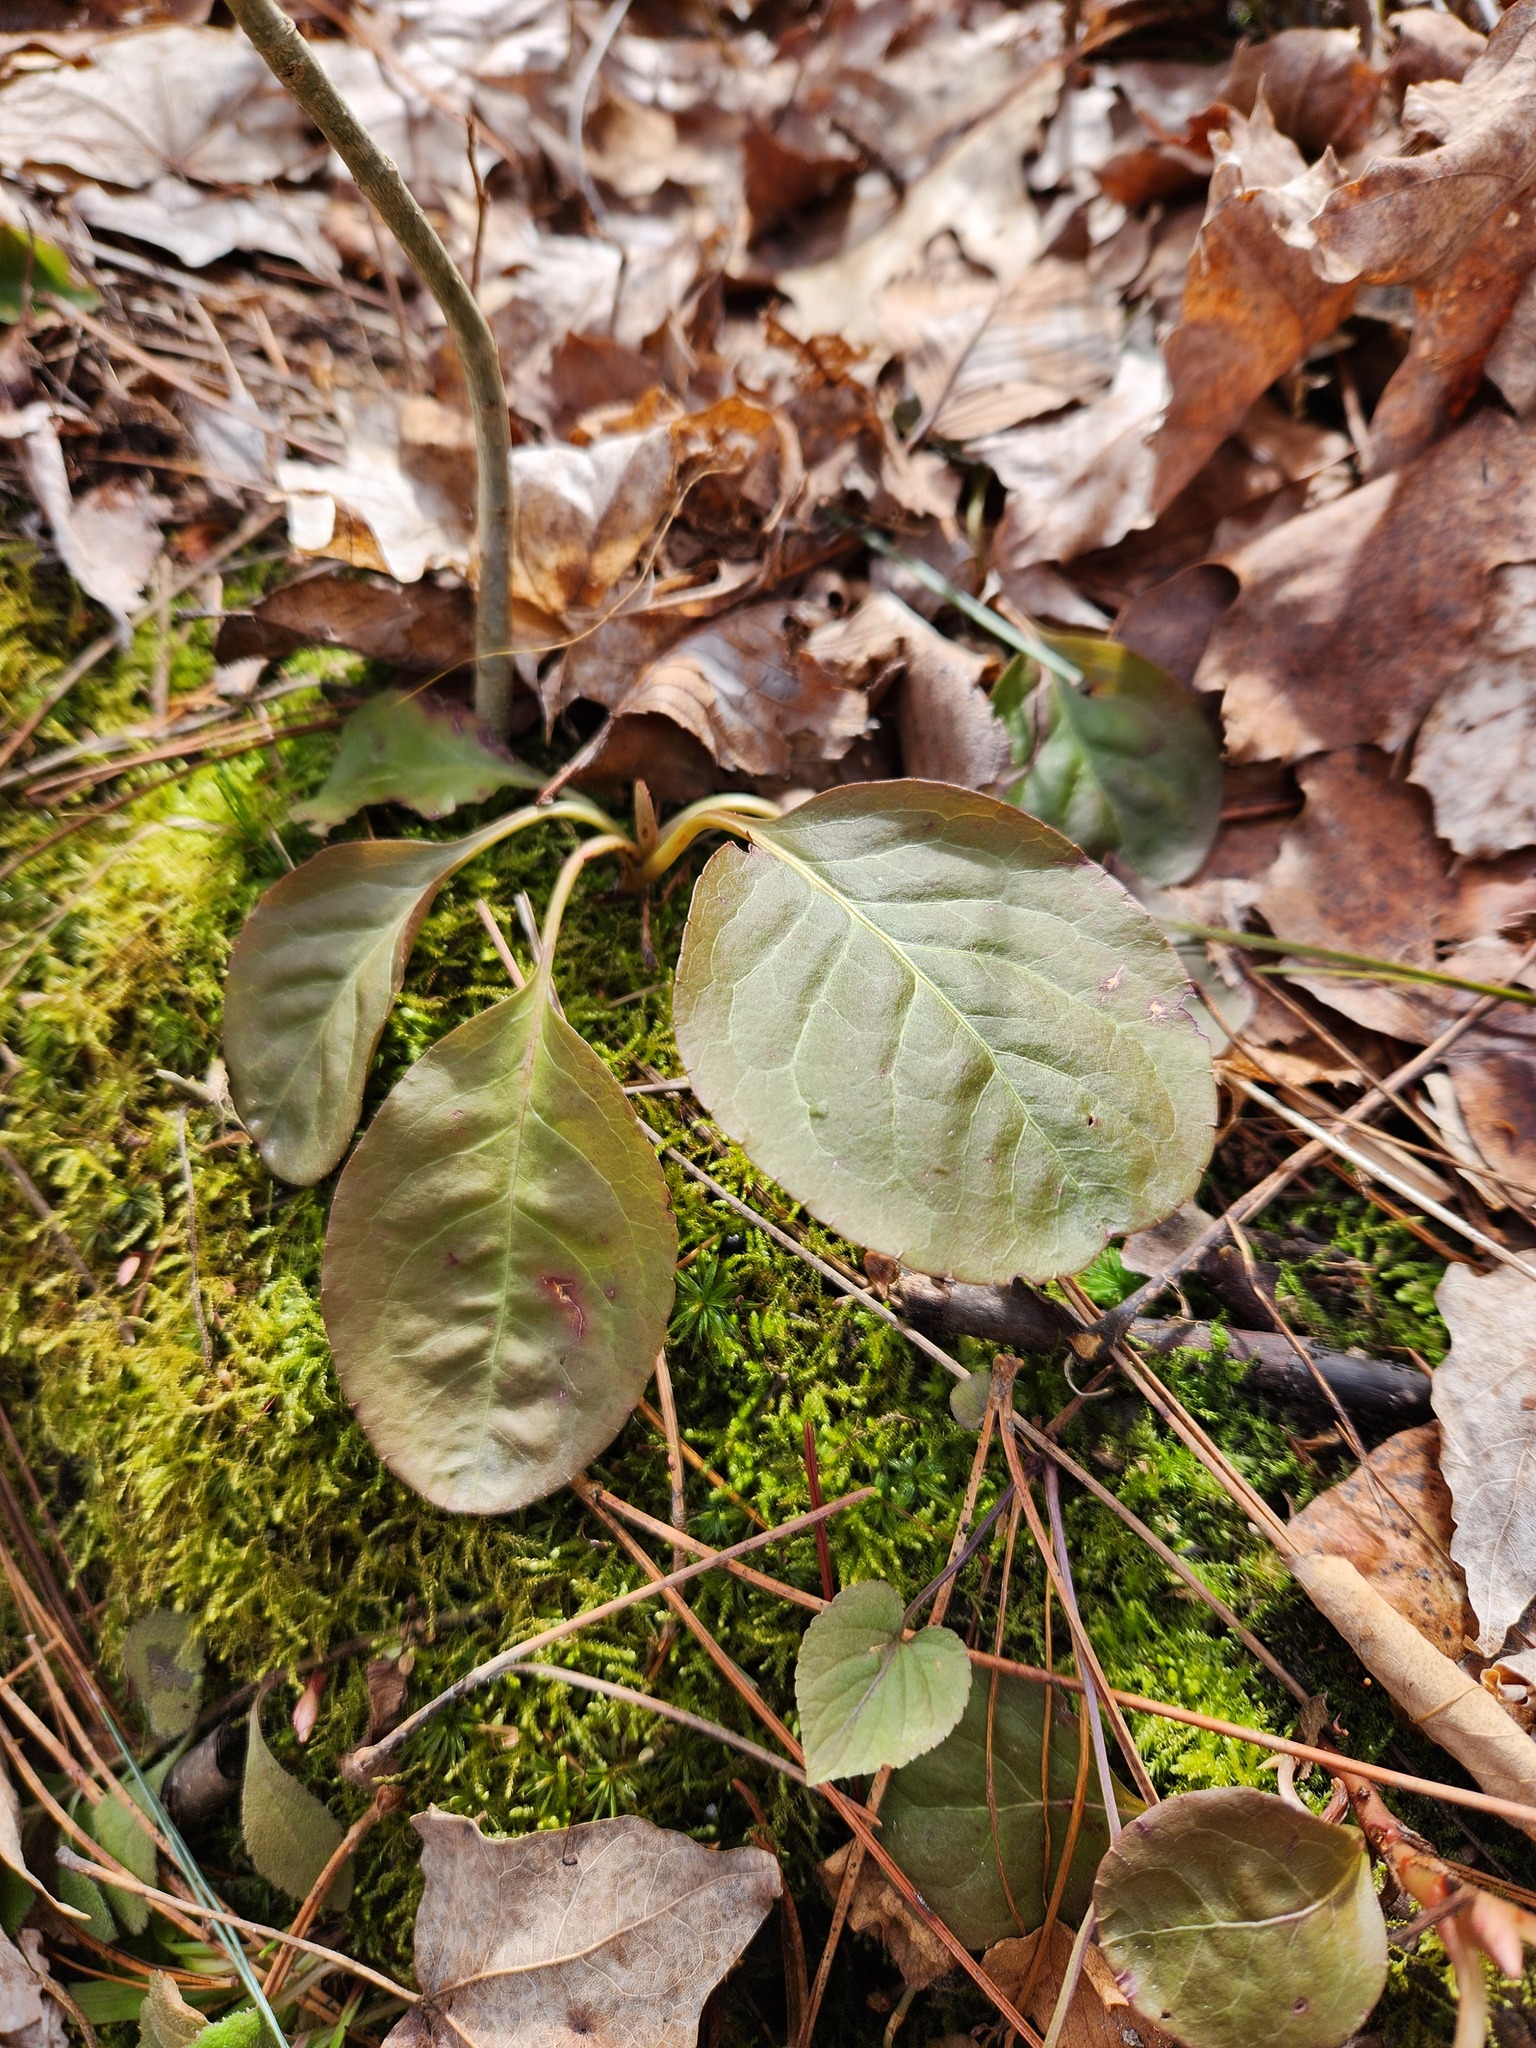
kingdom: Plantae
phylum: Tracheophyta
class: Magnoliopsida
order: Ericales
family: Ericaceae
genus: Pyrola
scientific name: Pyrola elliptica
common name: Shinleaf
